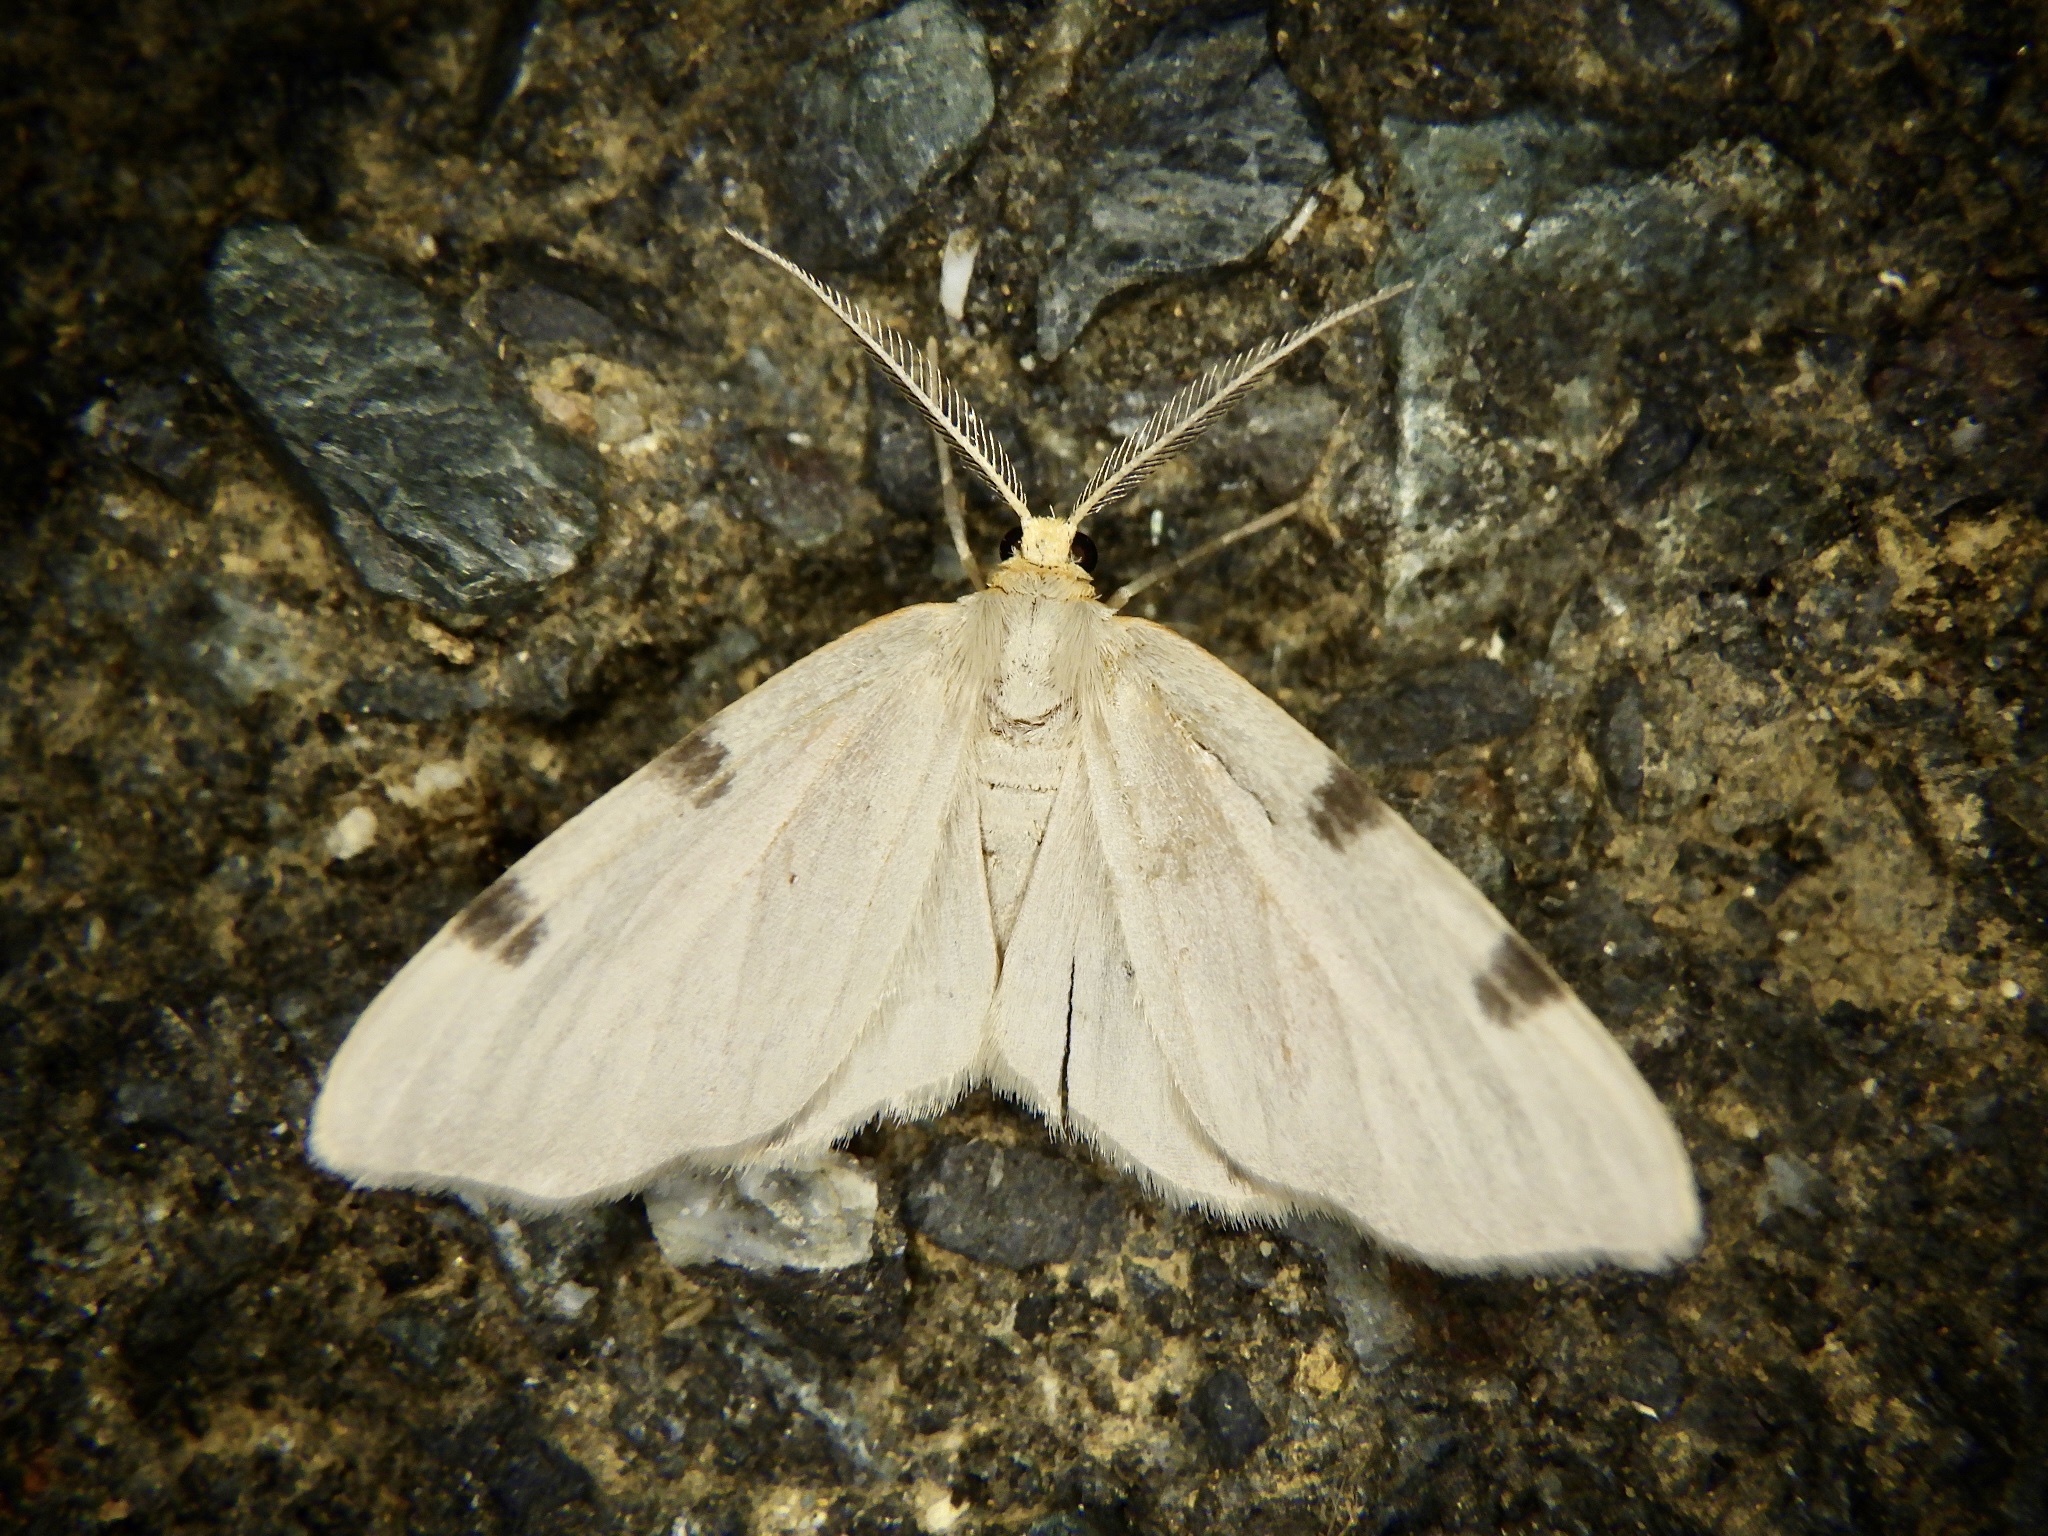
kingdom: Animalia
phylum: Arthropoda
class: Insecta
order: Lepidoptera
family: Geometridae
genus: Achrosis
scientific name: Achrosis paupera
